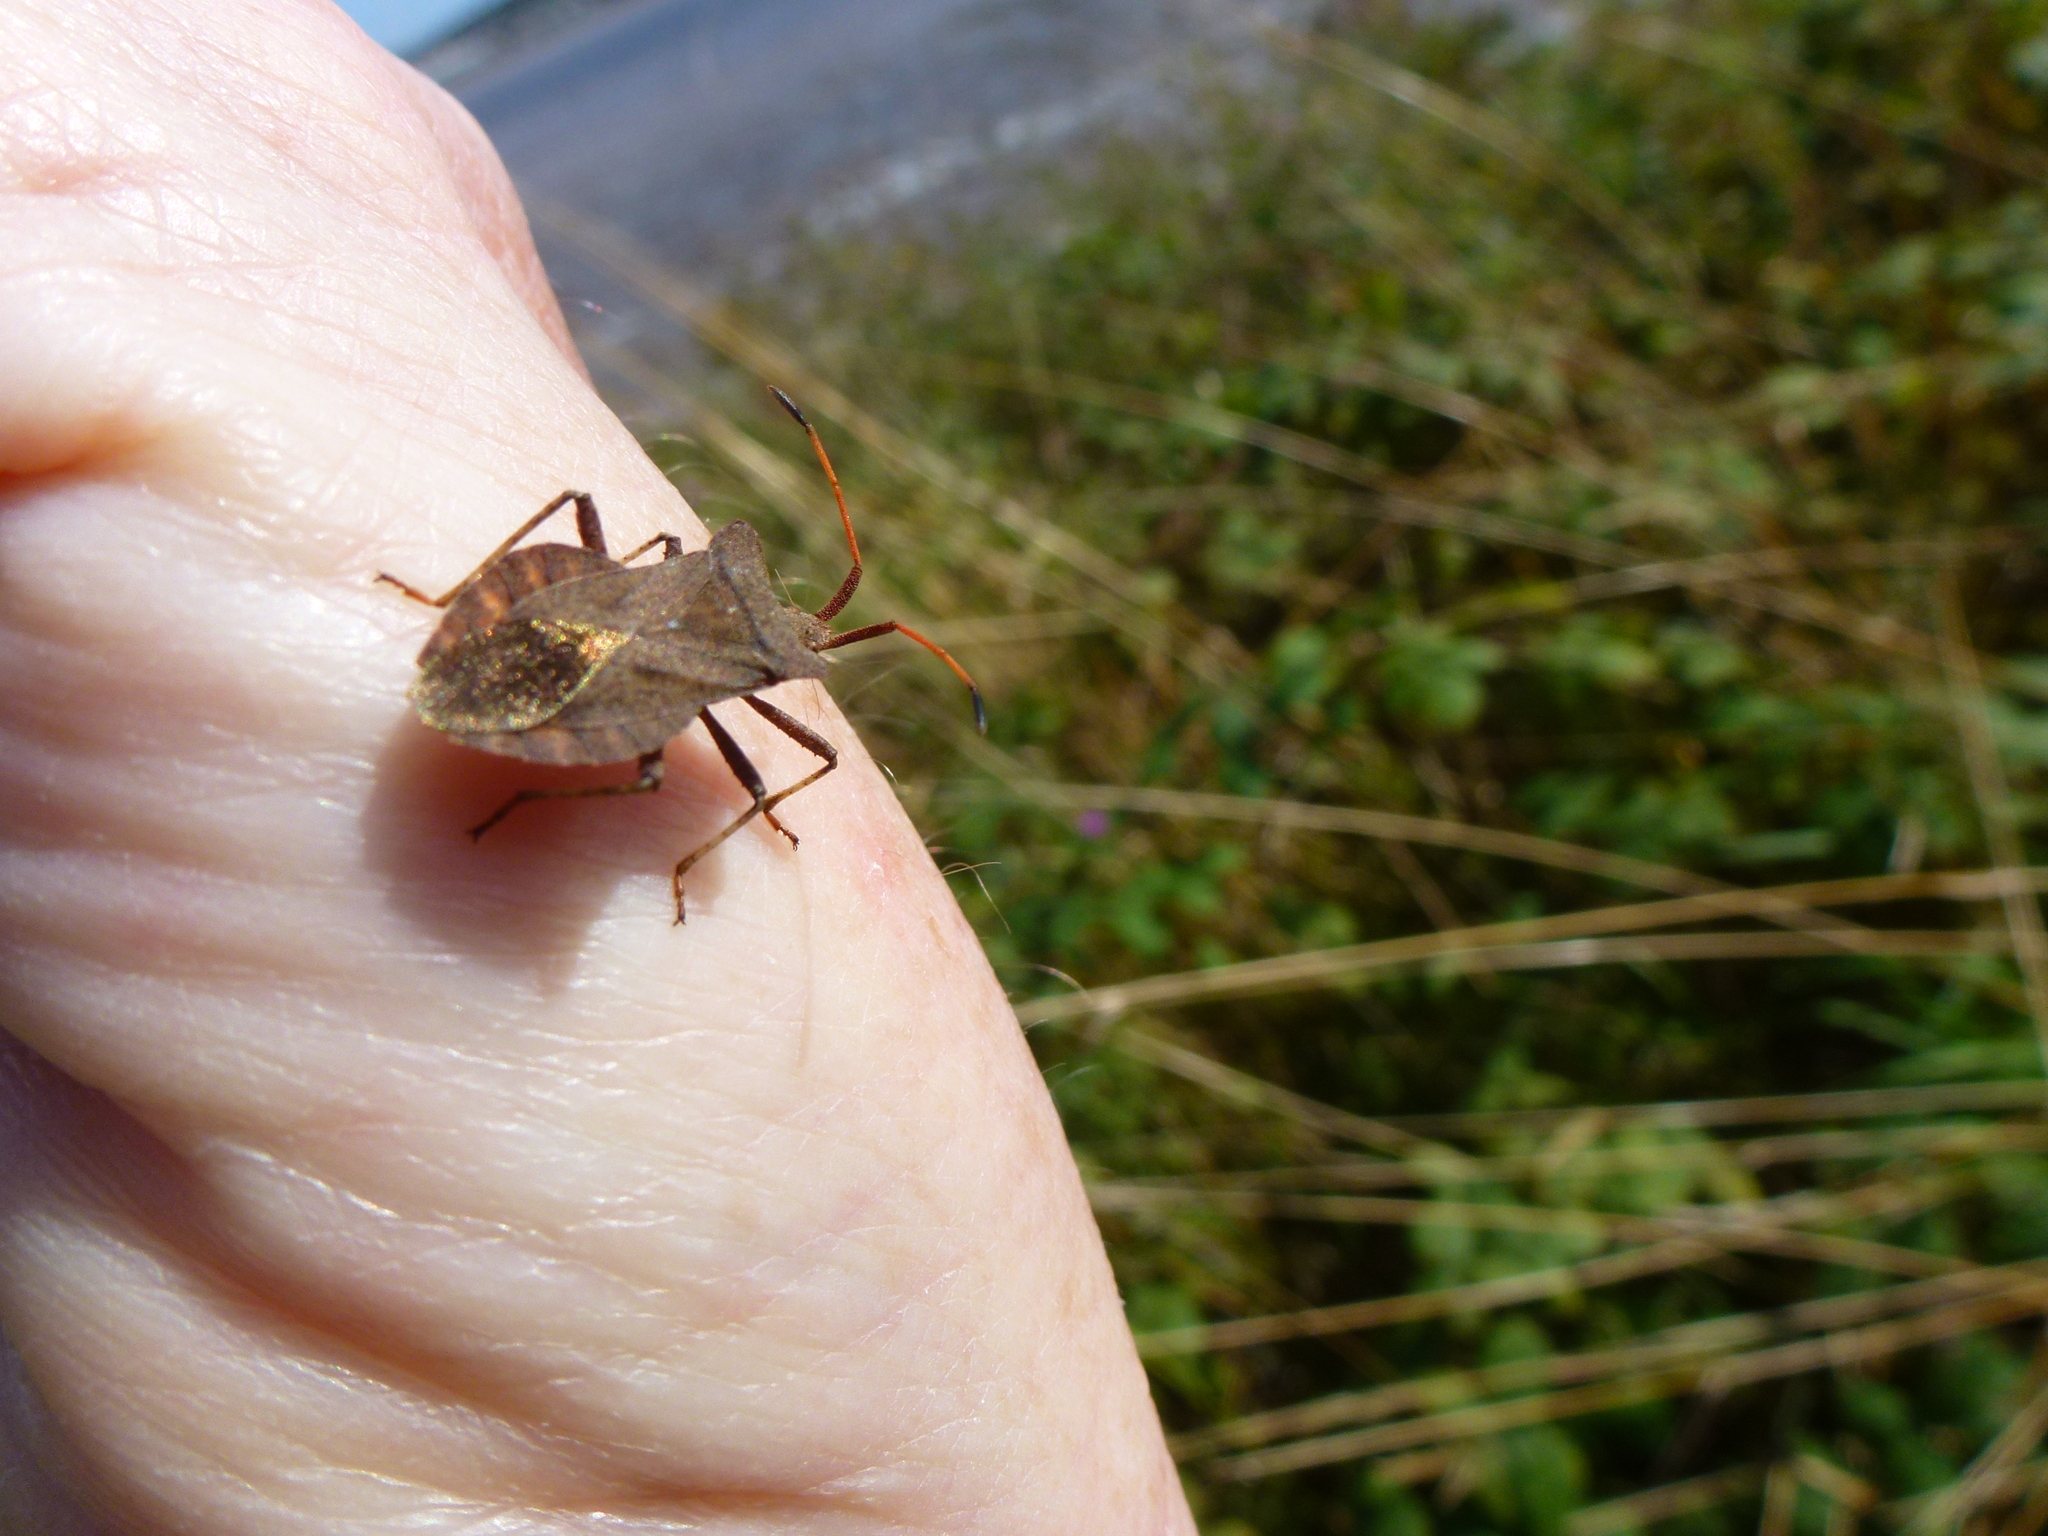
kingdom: Animalia
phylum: Arthropoda
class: Insecta
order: Hemiptera
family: Coreidae
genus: Coreus
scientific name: Coreus marginatus
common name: Dock bug
